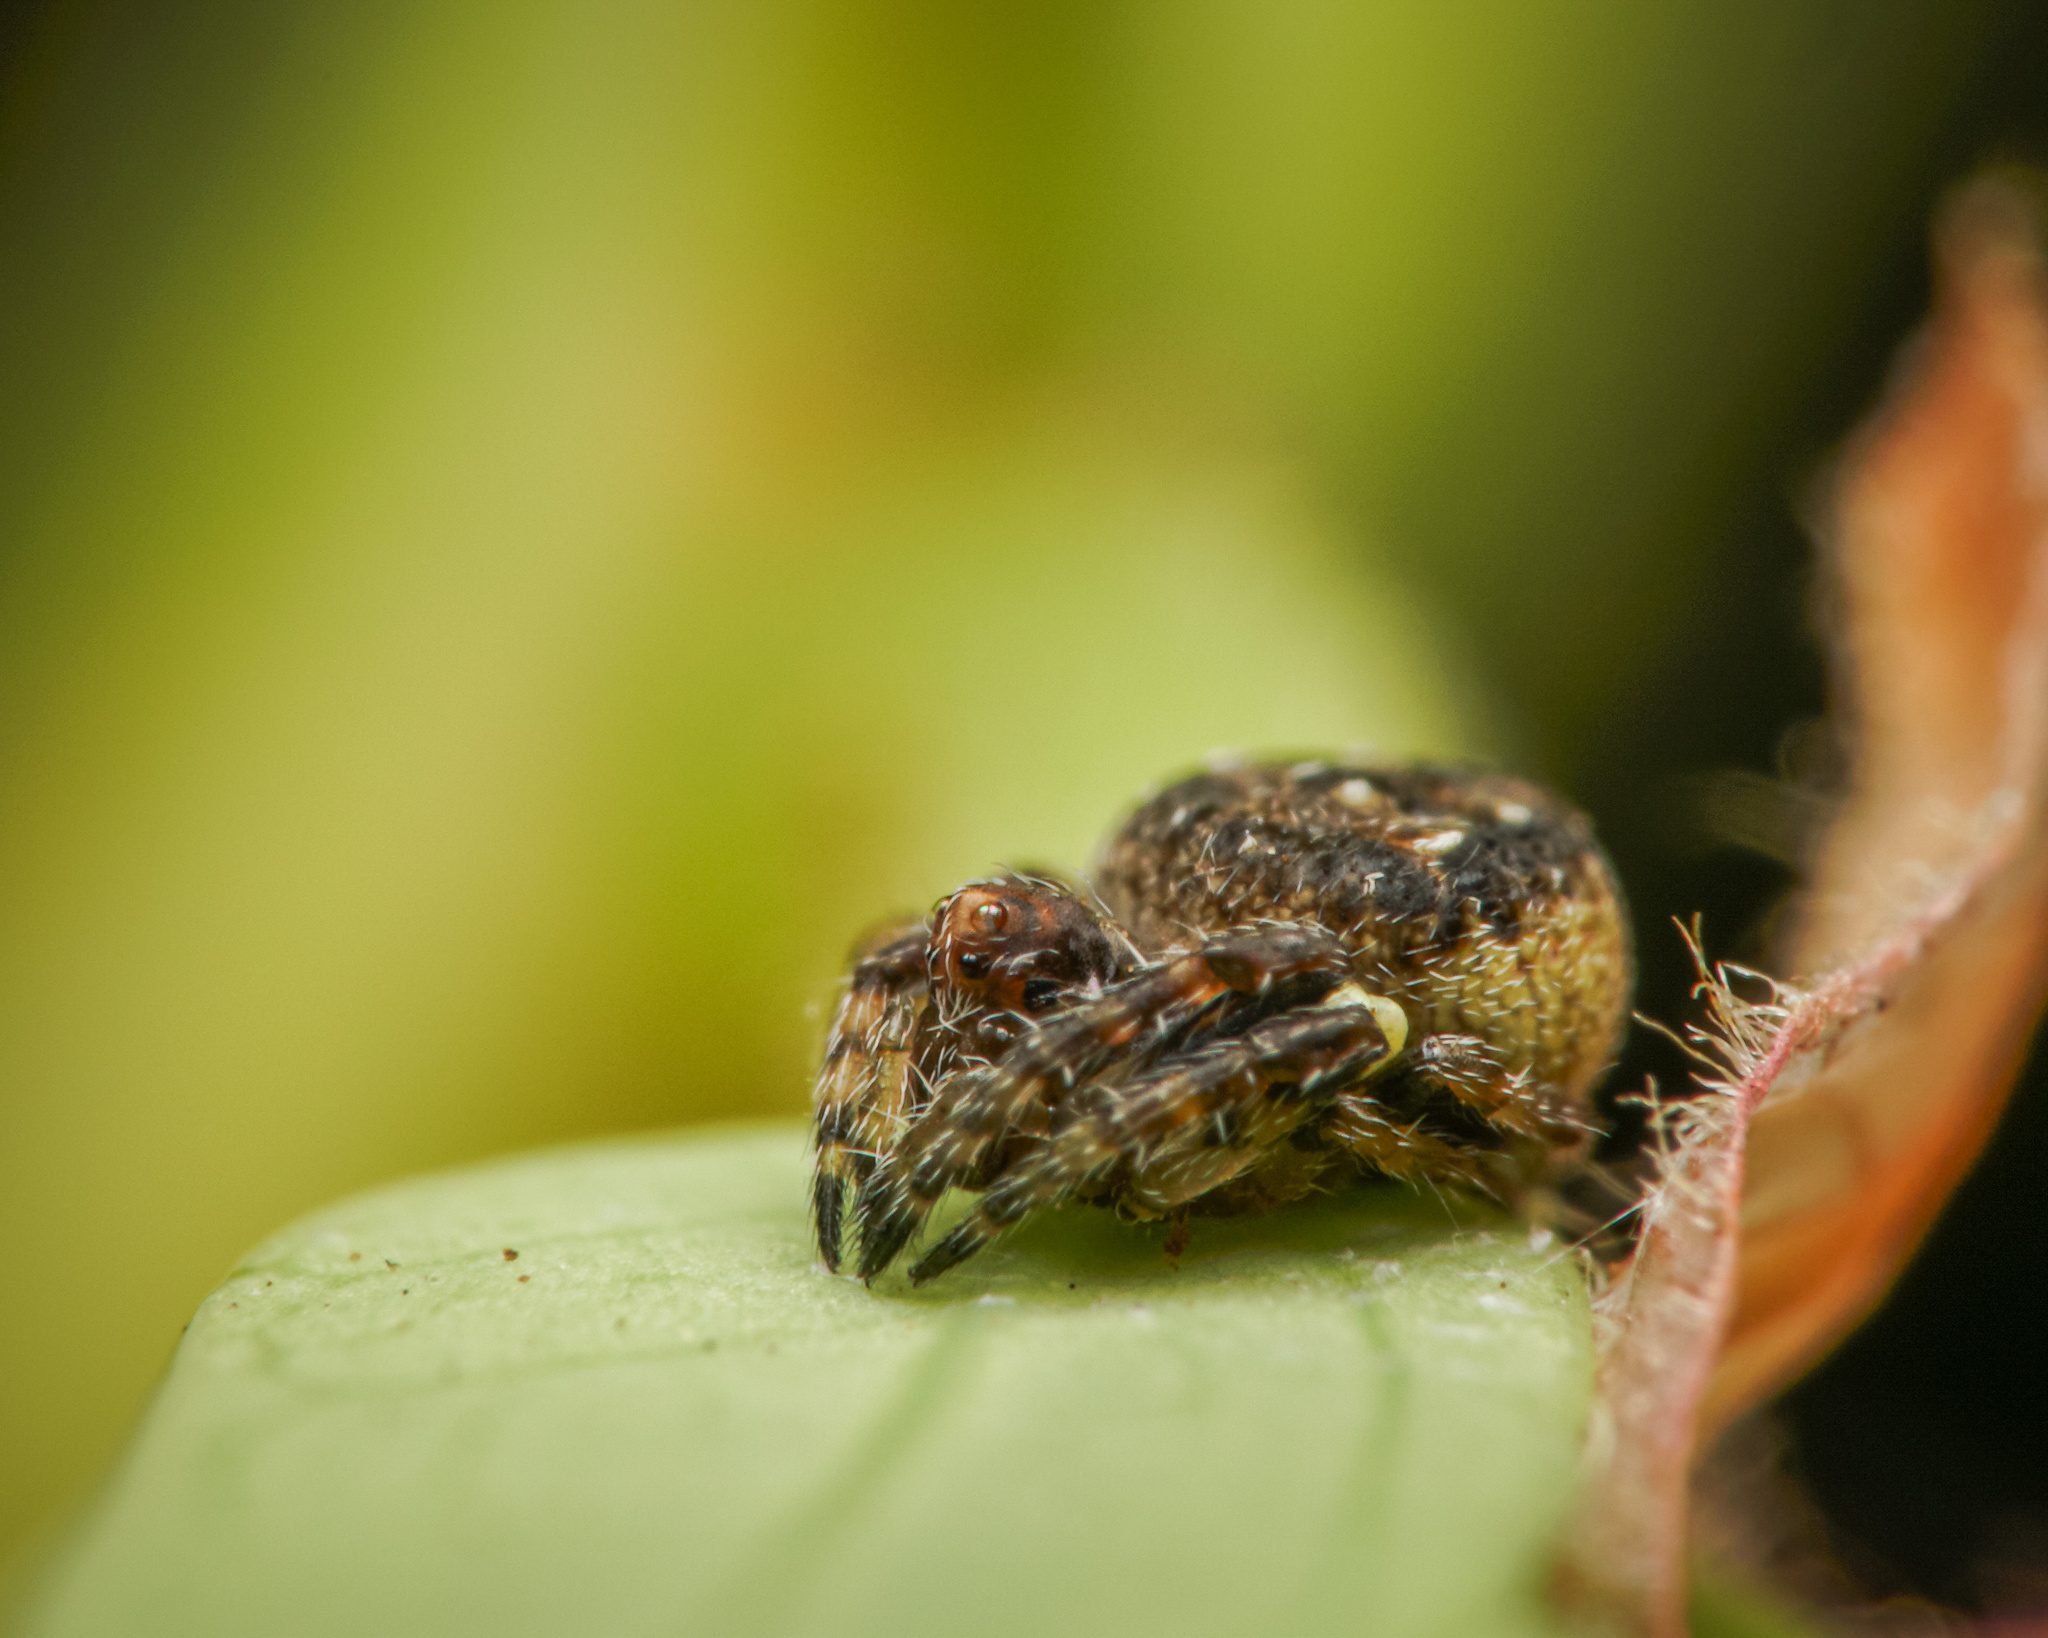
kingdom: Animalia
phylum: Arthropoda
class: Arachnida
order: Araneae
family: Araneidae
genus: Eriovixia
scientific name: Eriovixia excelsa
